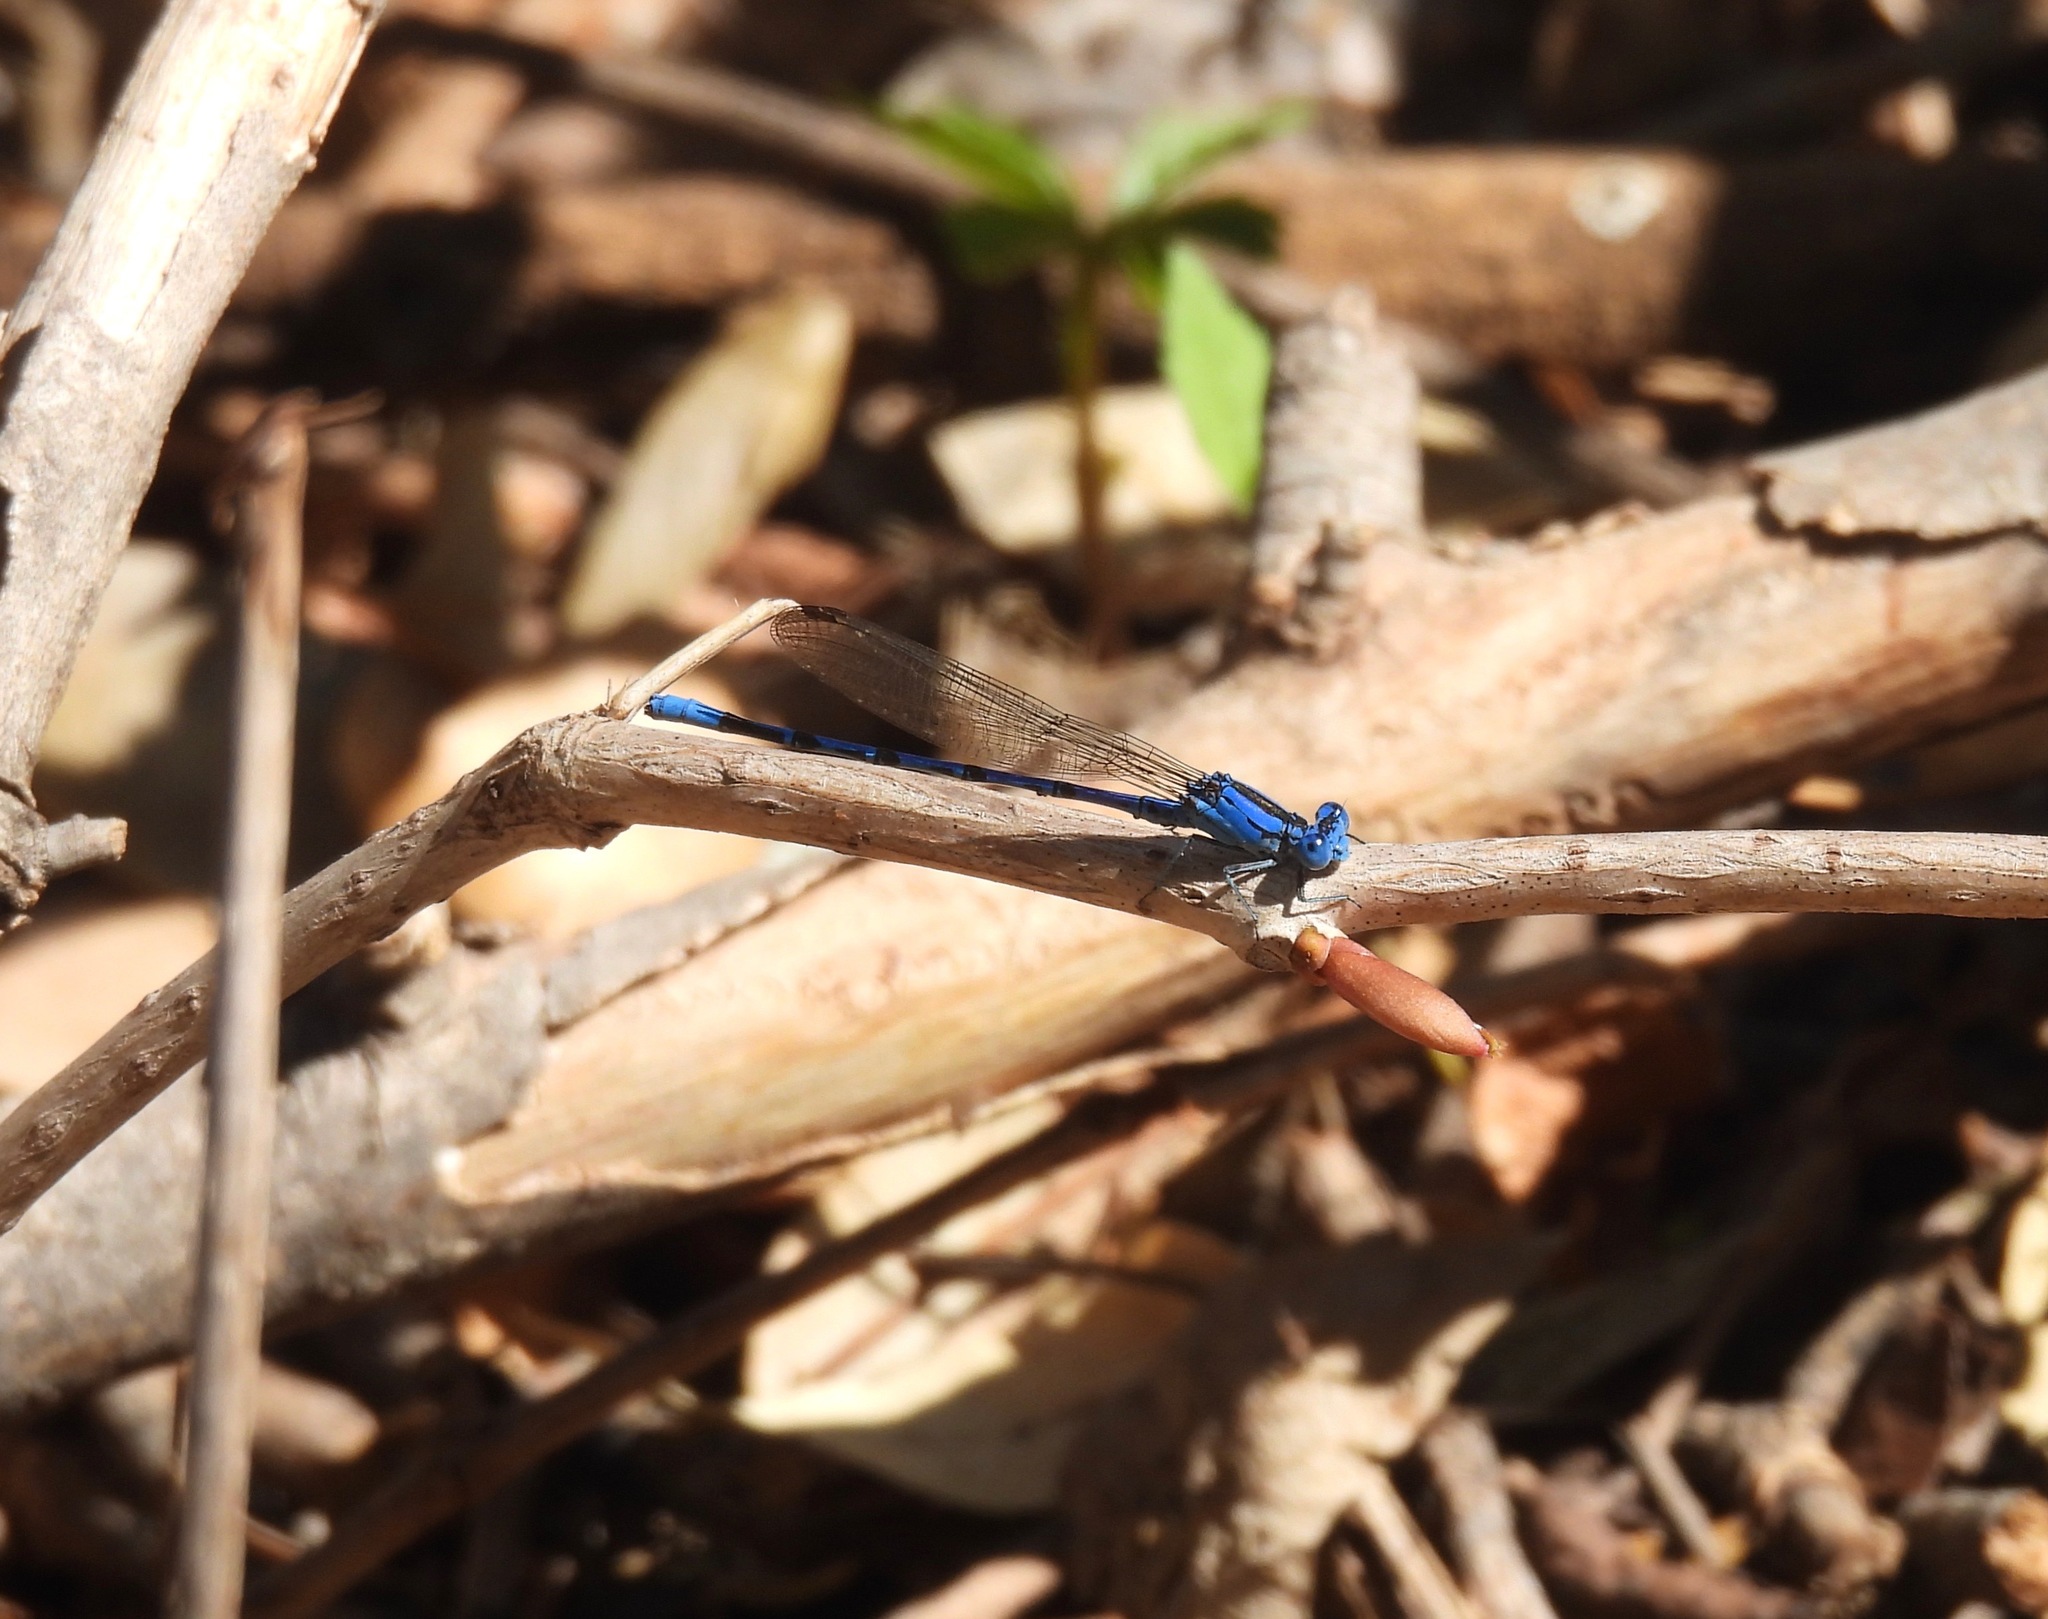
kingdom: Animalia
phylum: Arthropoda
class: Insecta
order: Odonata
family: Coenagrionidae
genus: Argia
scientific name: Argia funebris
